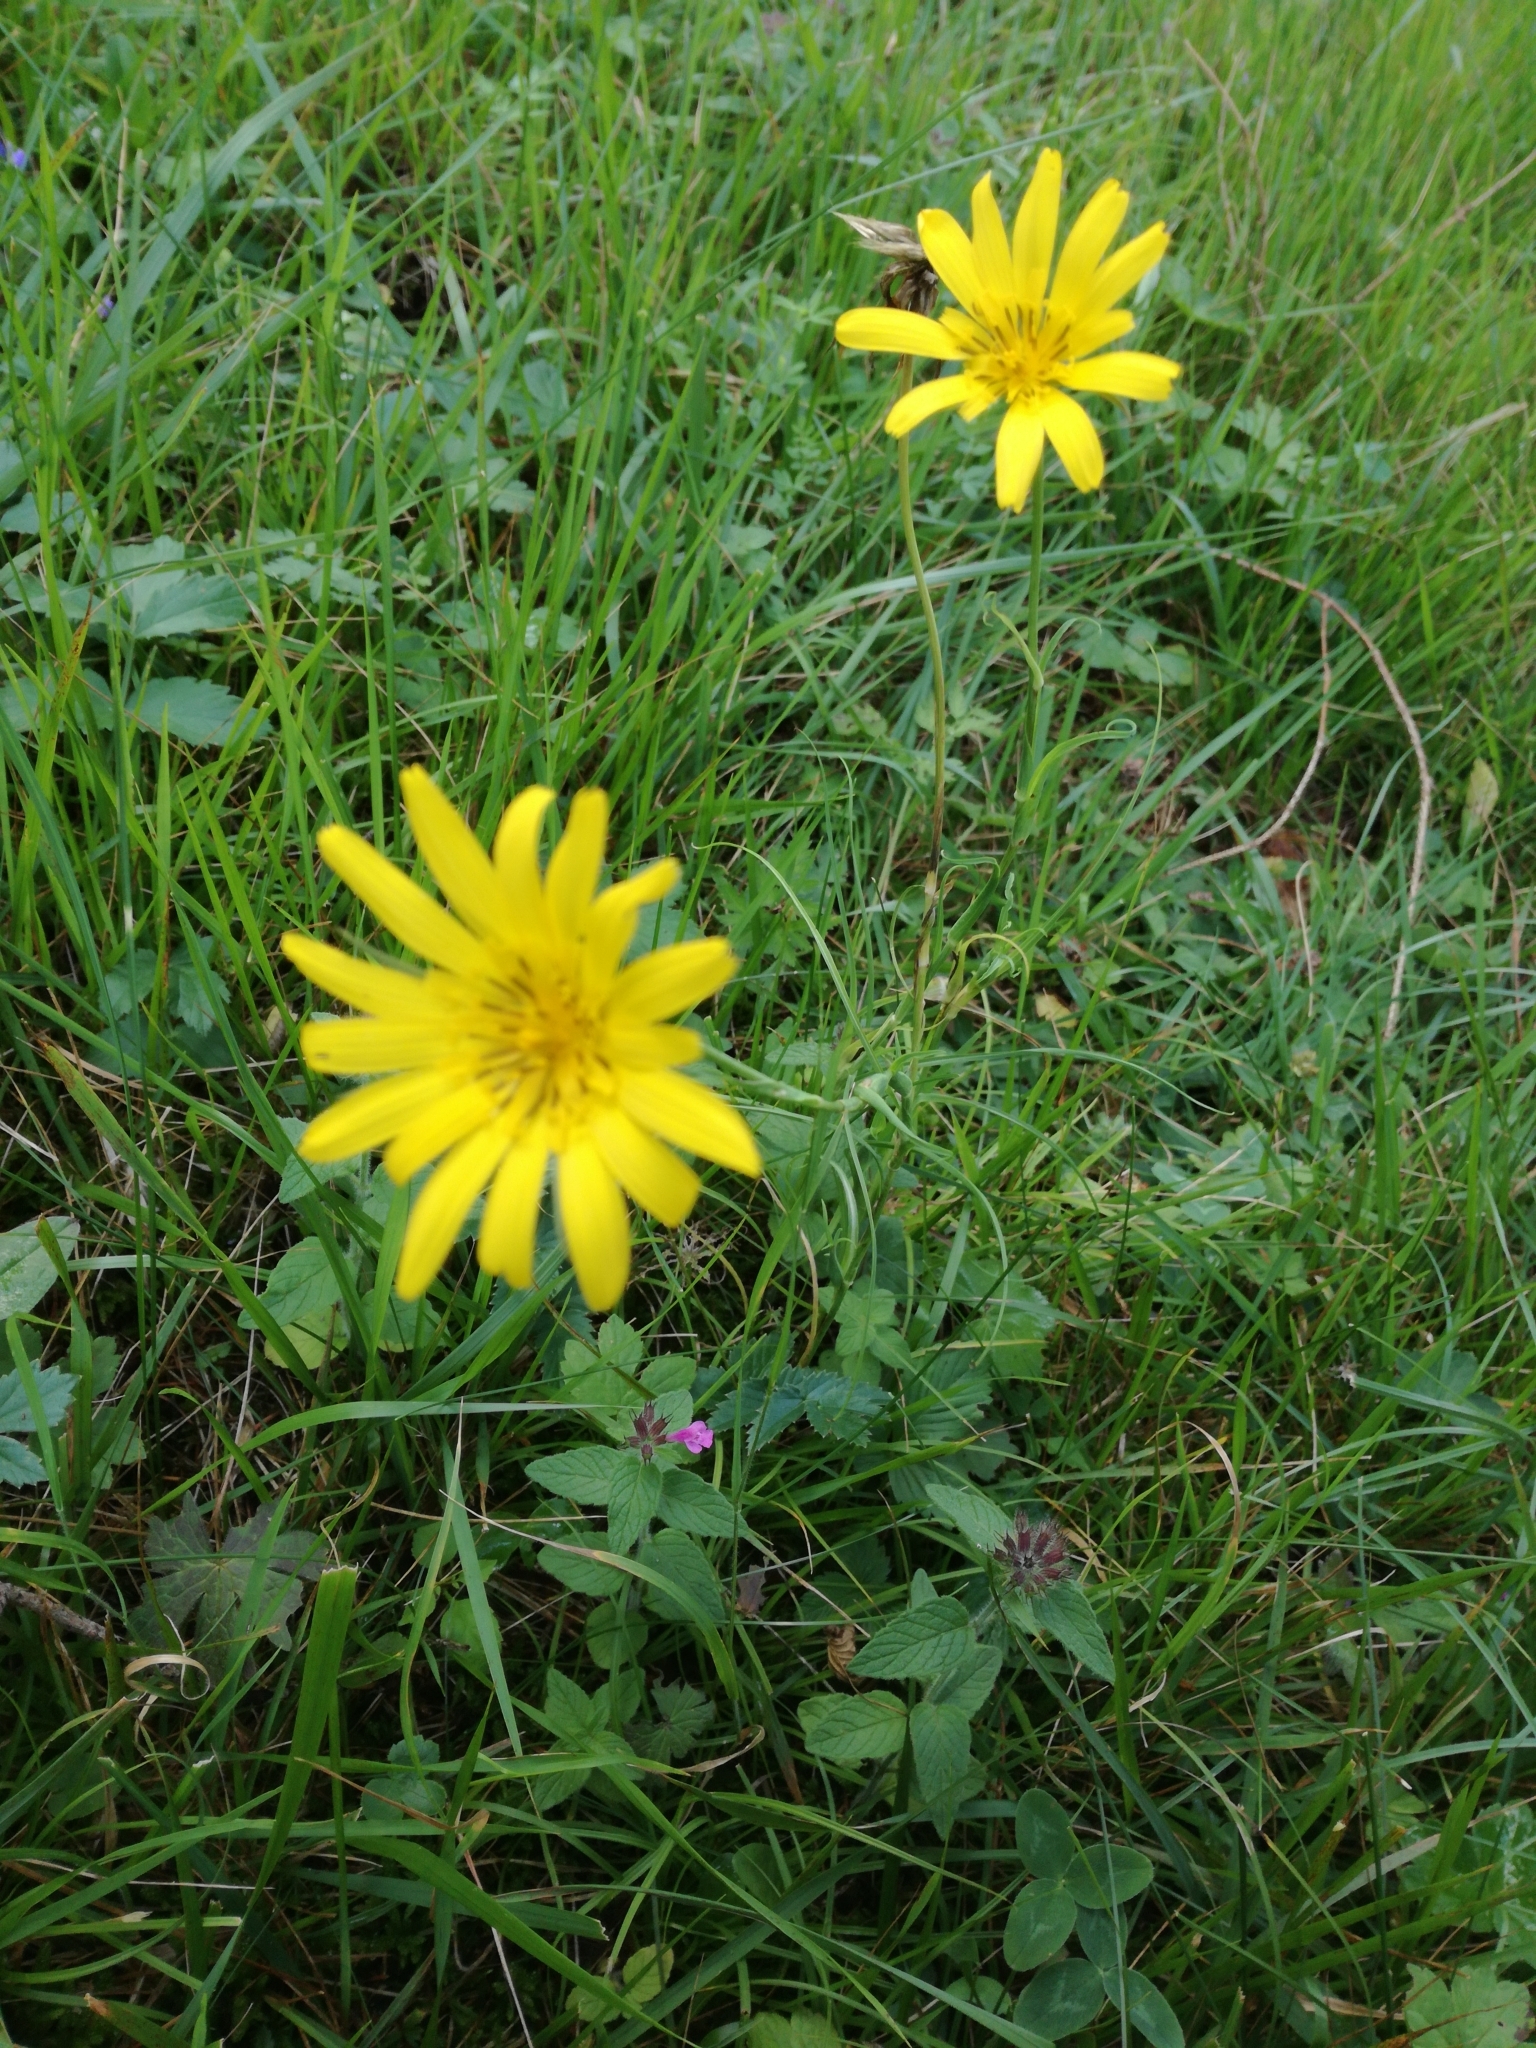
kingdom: Plantae
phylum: Tracheophyta
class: Magnoliopsida
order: Asterales
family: Asteraceae
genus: Tragopogon
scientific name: Tragopogon orientalis
